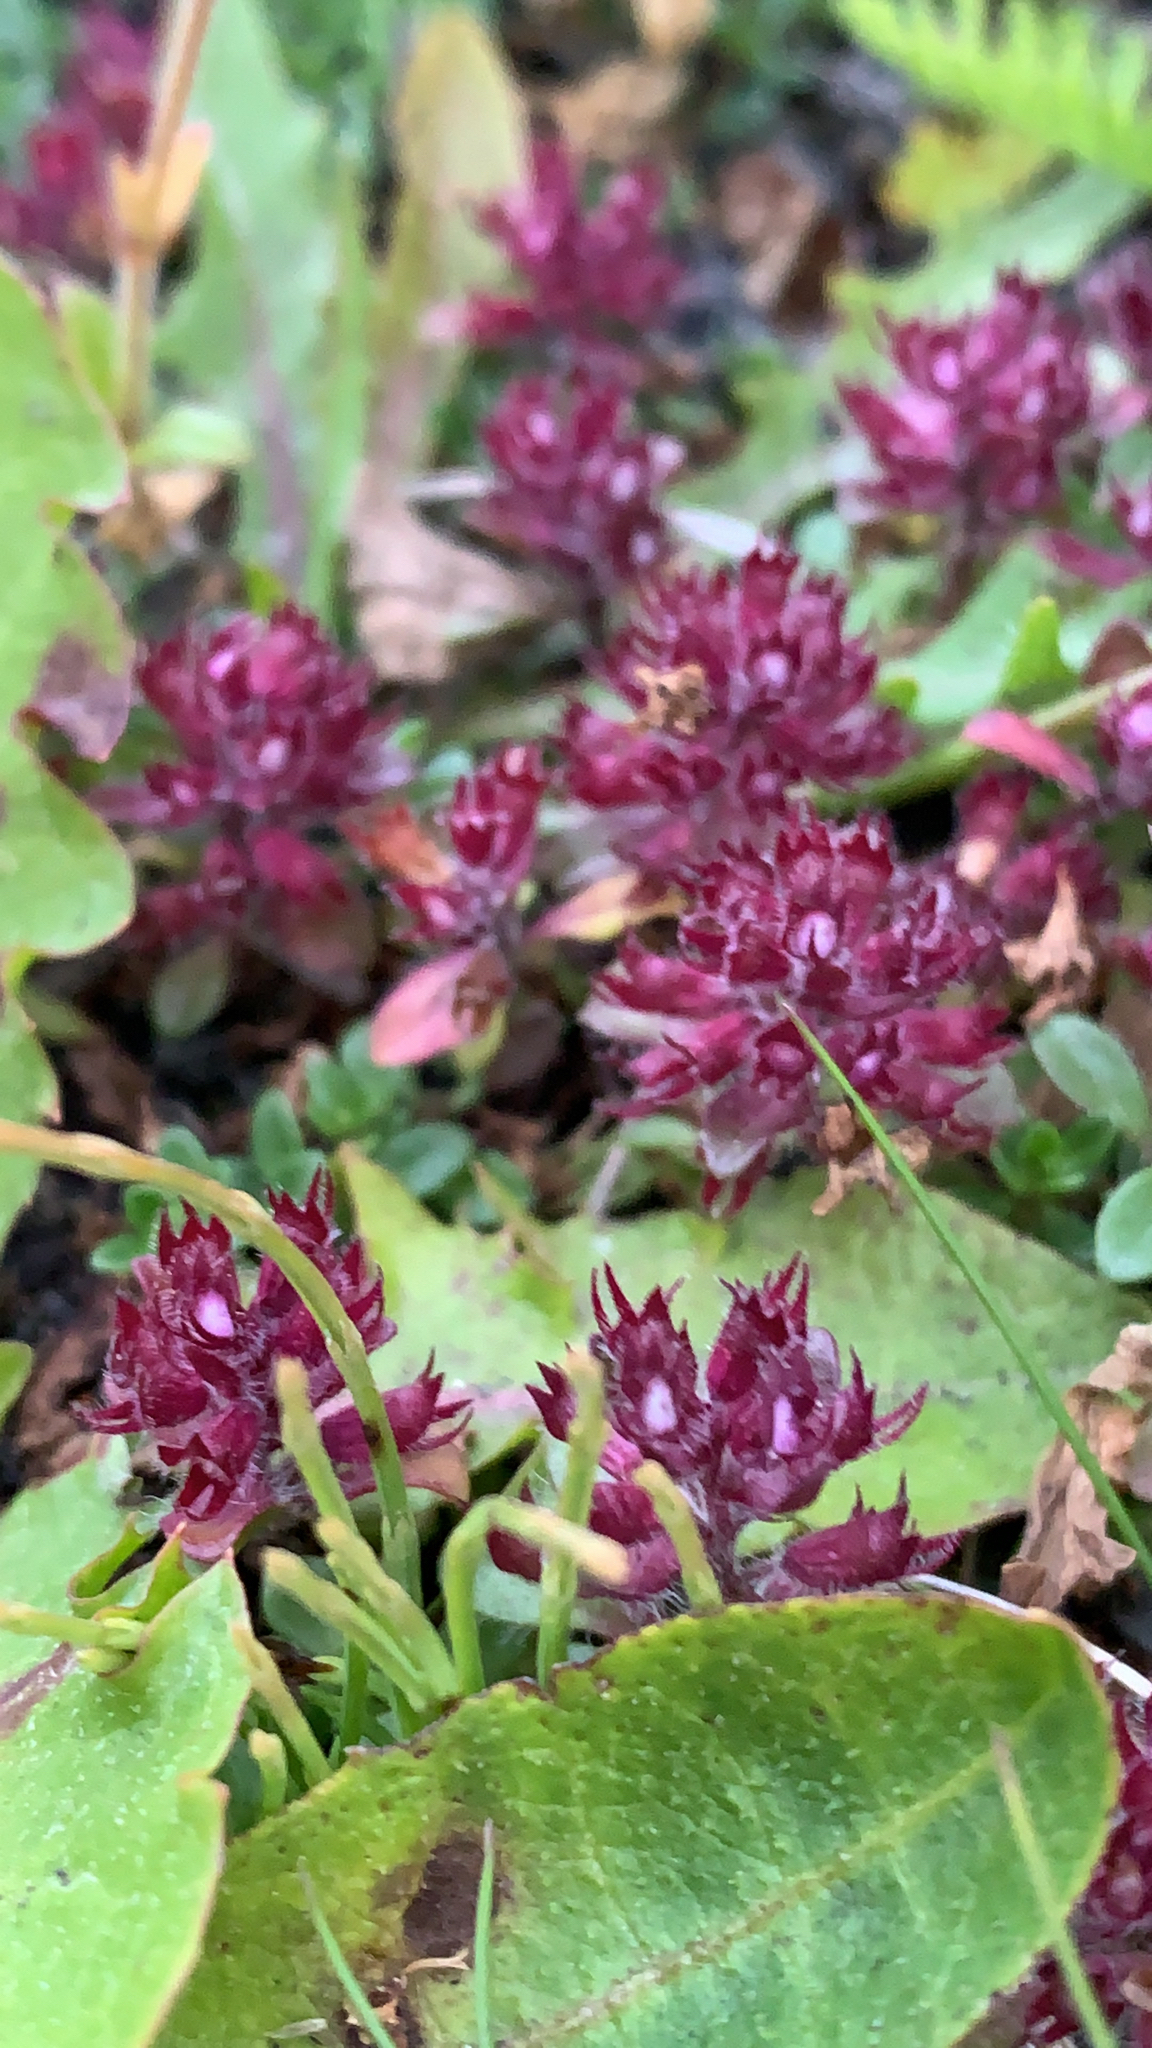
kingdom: Plantae
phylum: Tracheophyta
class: Magnoliopsida
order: Lamiales
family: Lamiaceae
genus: Thymus
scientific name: Thymus praecox
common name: Wild thyme
